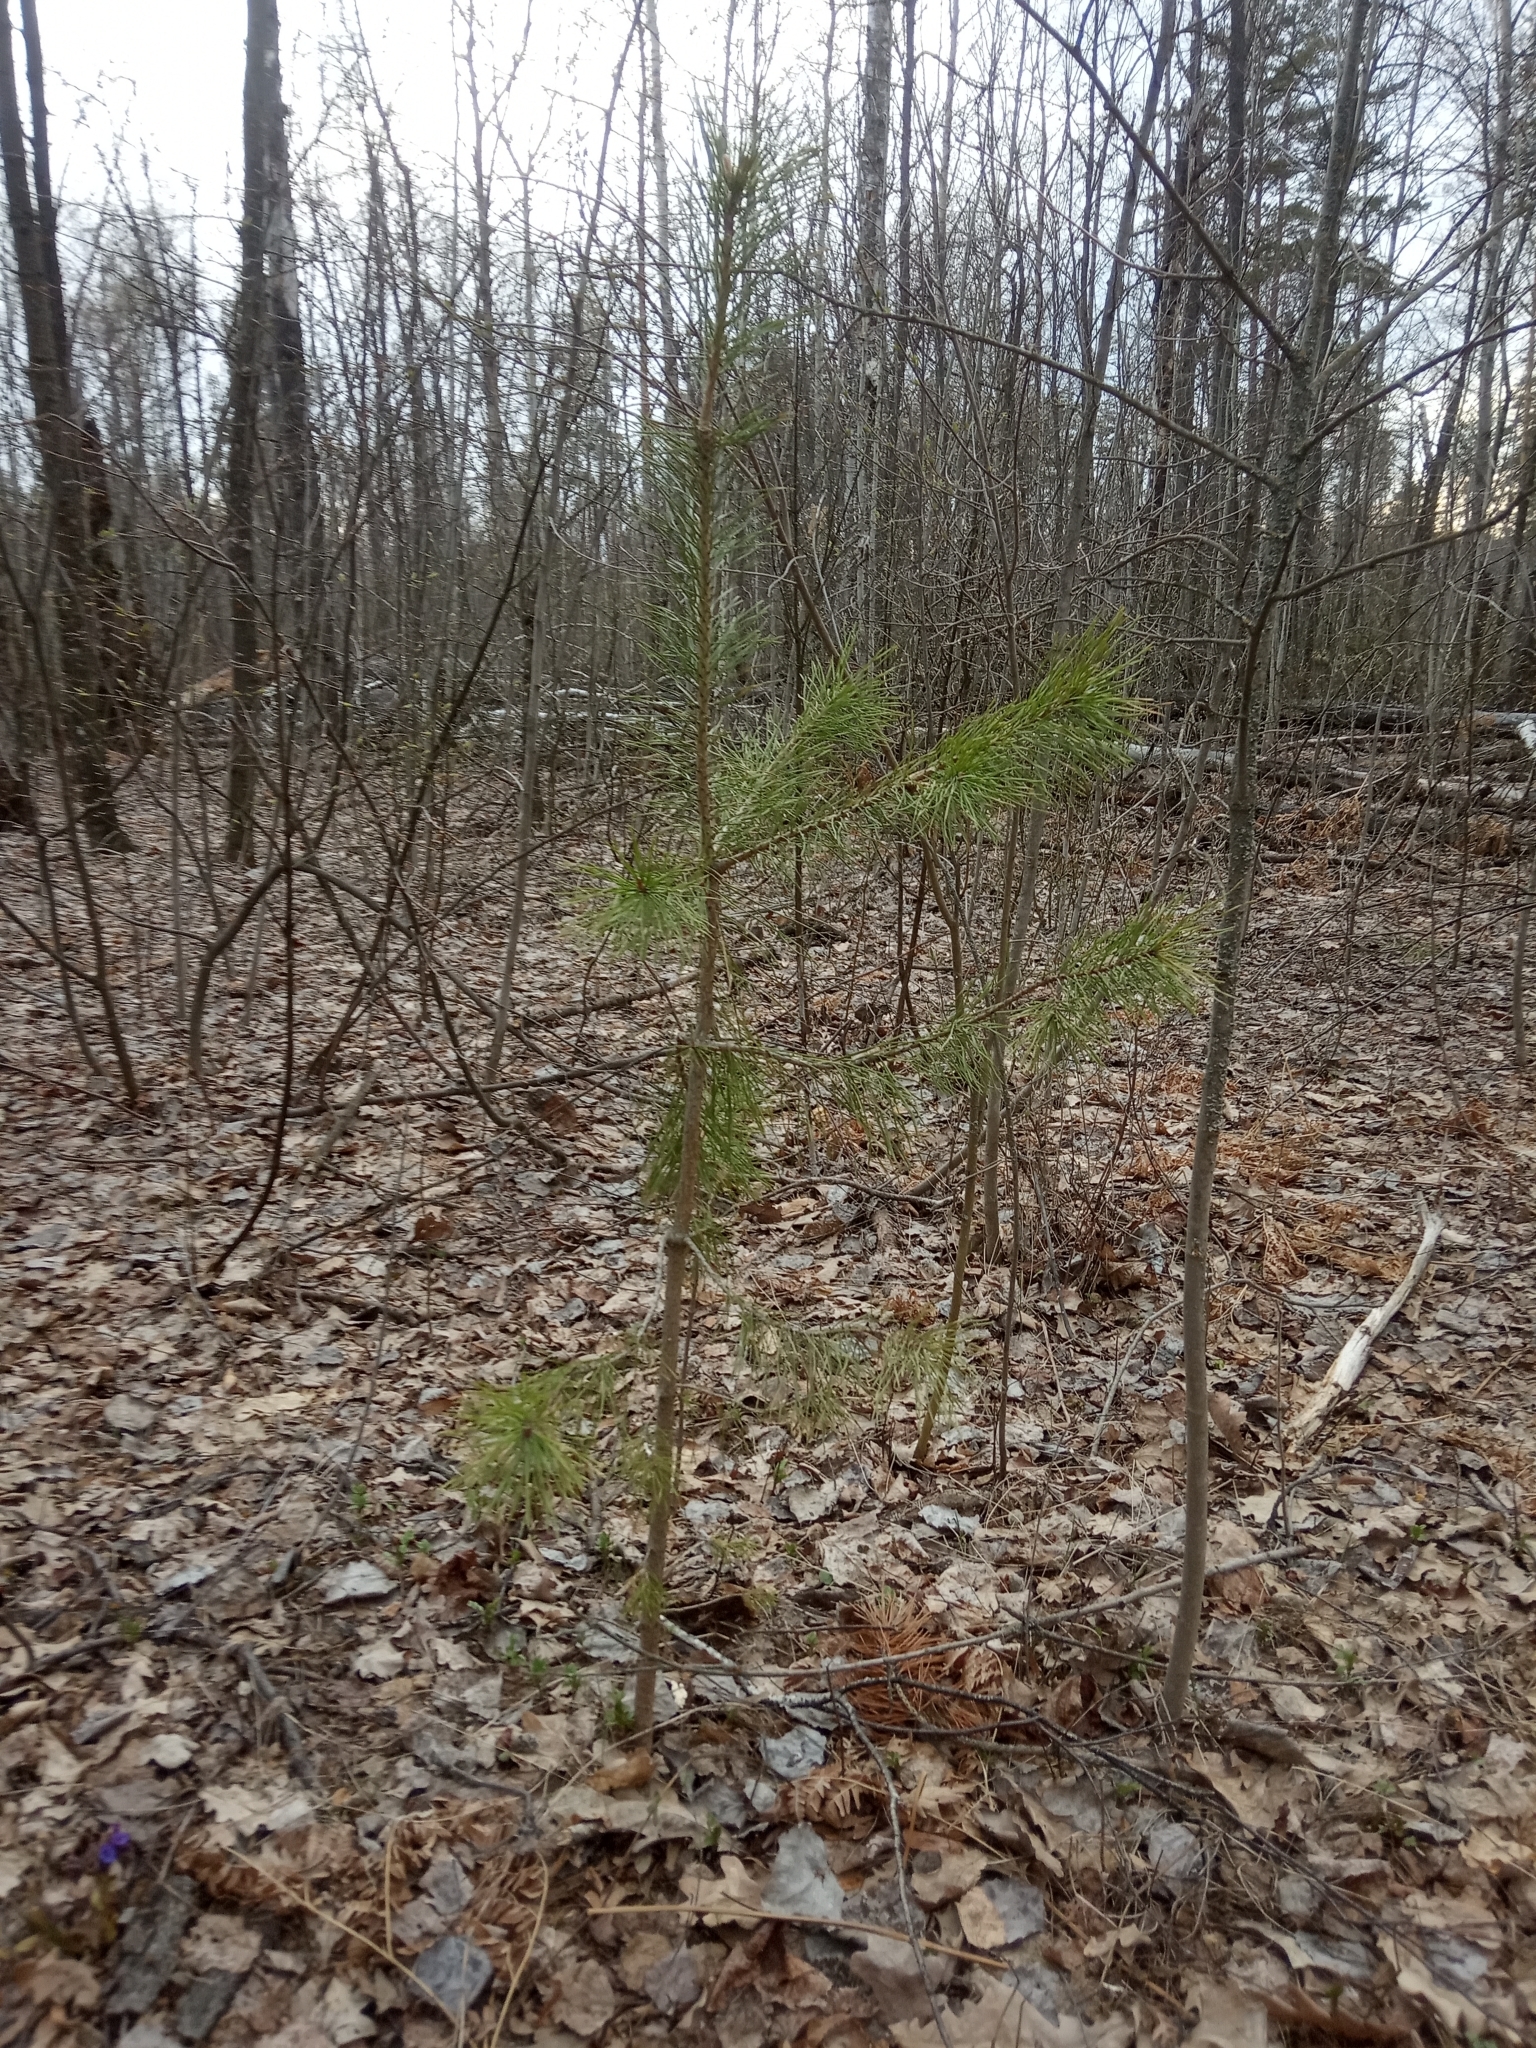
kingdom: Plantae
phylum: Tracheophyta
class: Pinopsida
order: Pinales
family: Pinaceae
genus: Pinus
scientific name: Pinus sylvestris
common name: Scots pine
